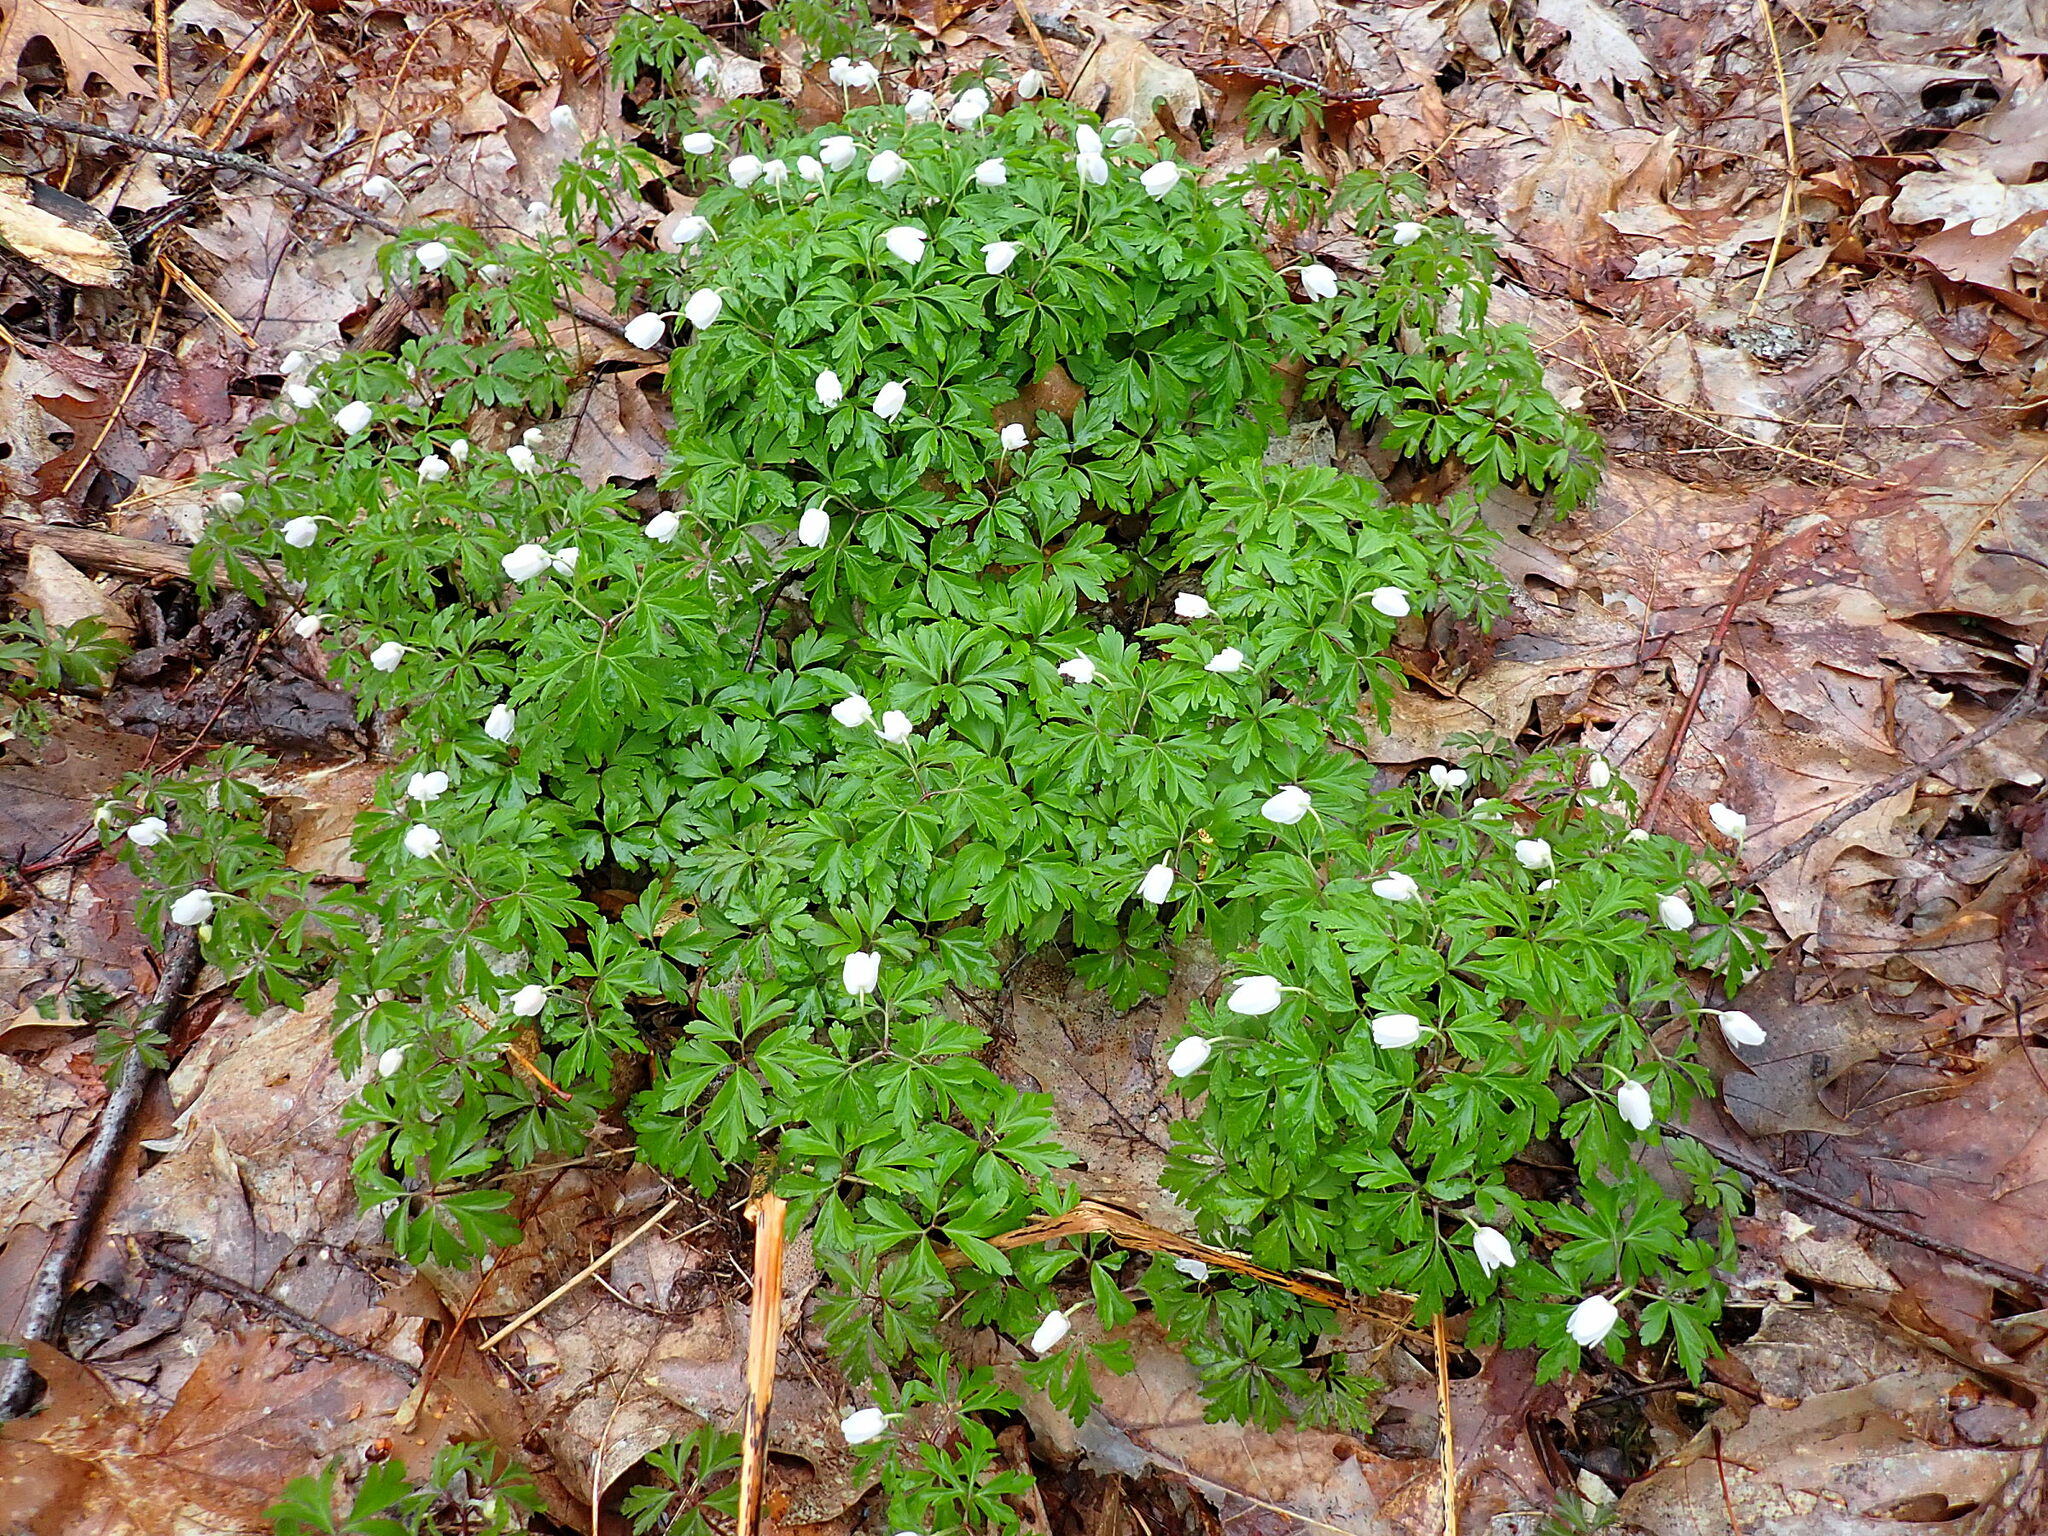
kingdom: Plantae
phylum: Tracheophyta
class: Magnoliopsida
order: Ranunculales
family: Ranunculaceae
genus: Anemone
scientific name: Anemone nemorosa
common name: Wood anemone
